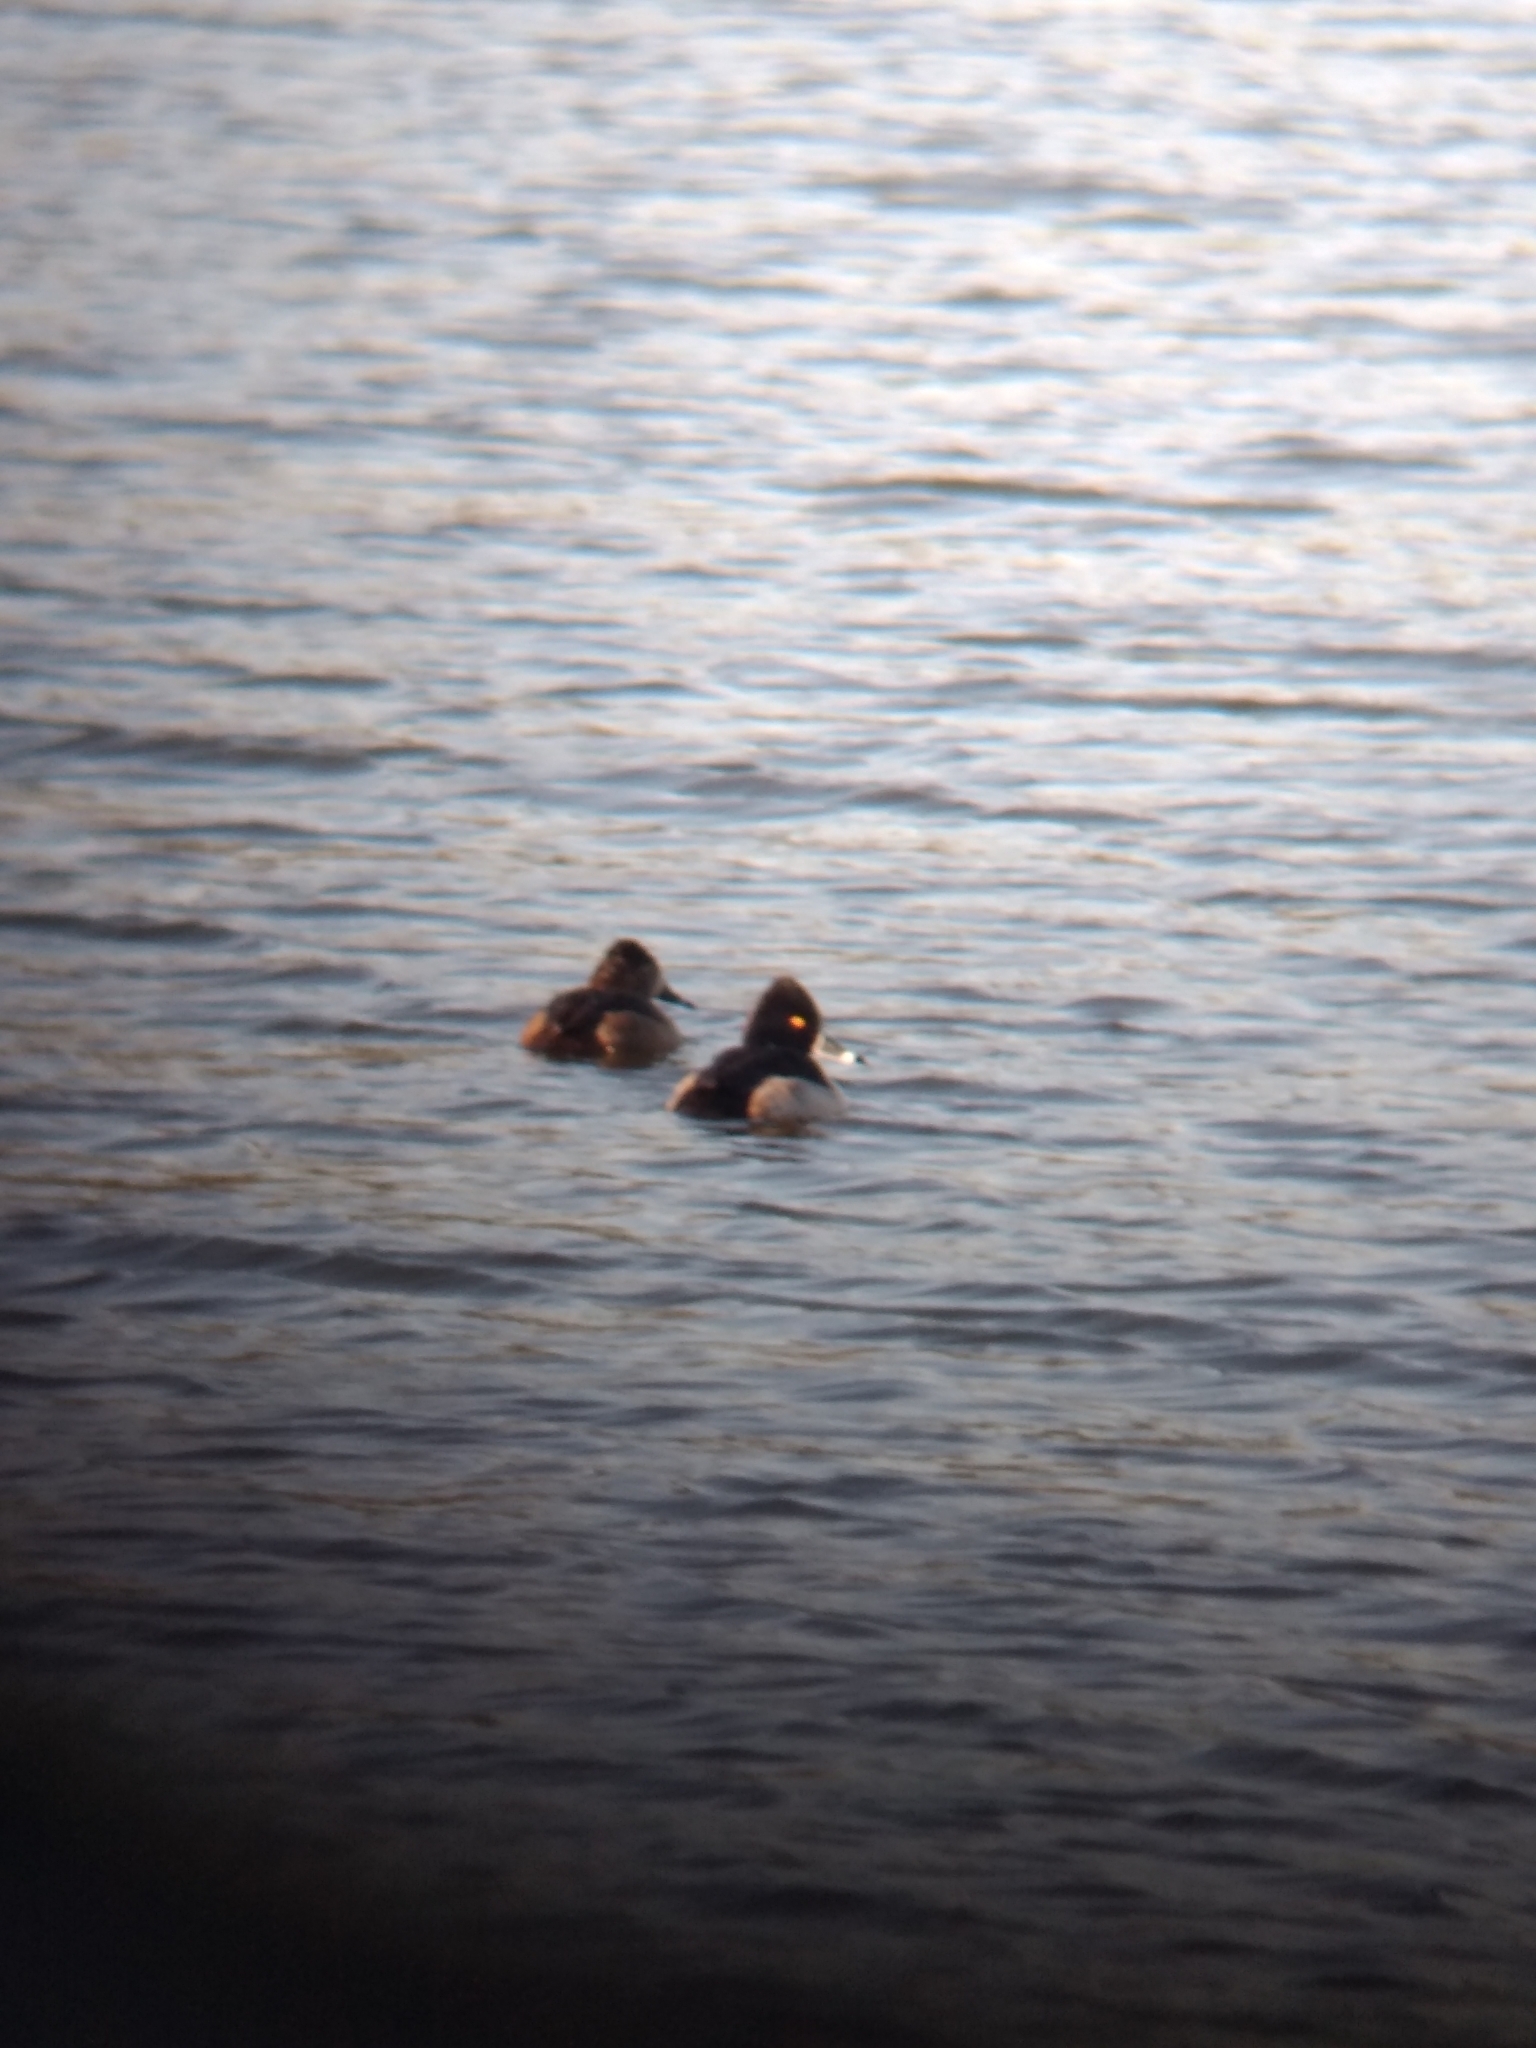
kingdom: Animalia
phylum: Chordata
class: Aves
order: Anseriformes
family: Anatidae
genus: Aythya
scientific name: Aythya collaris
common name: Ring-necked duck
